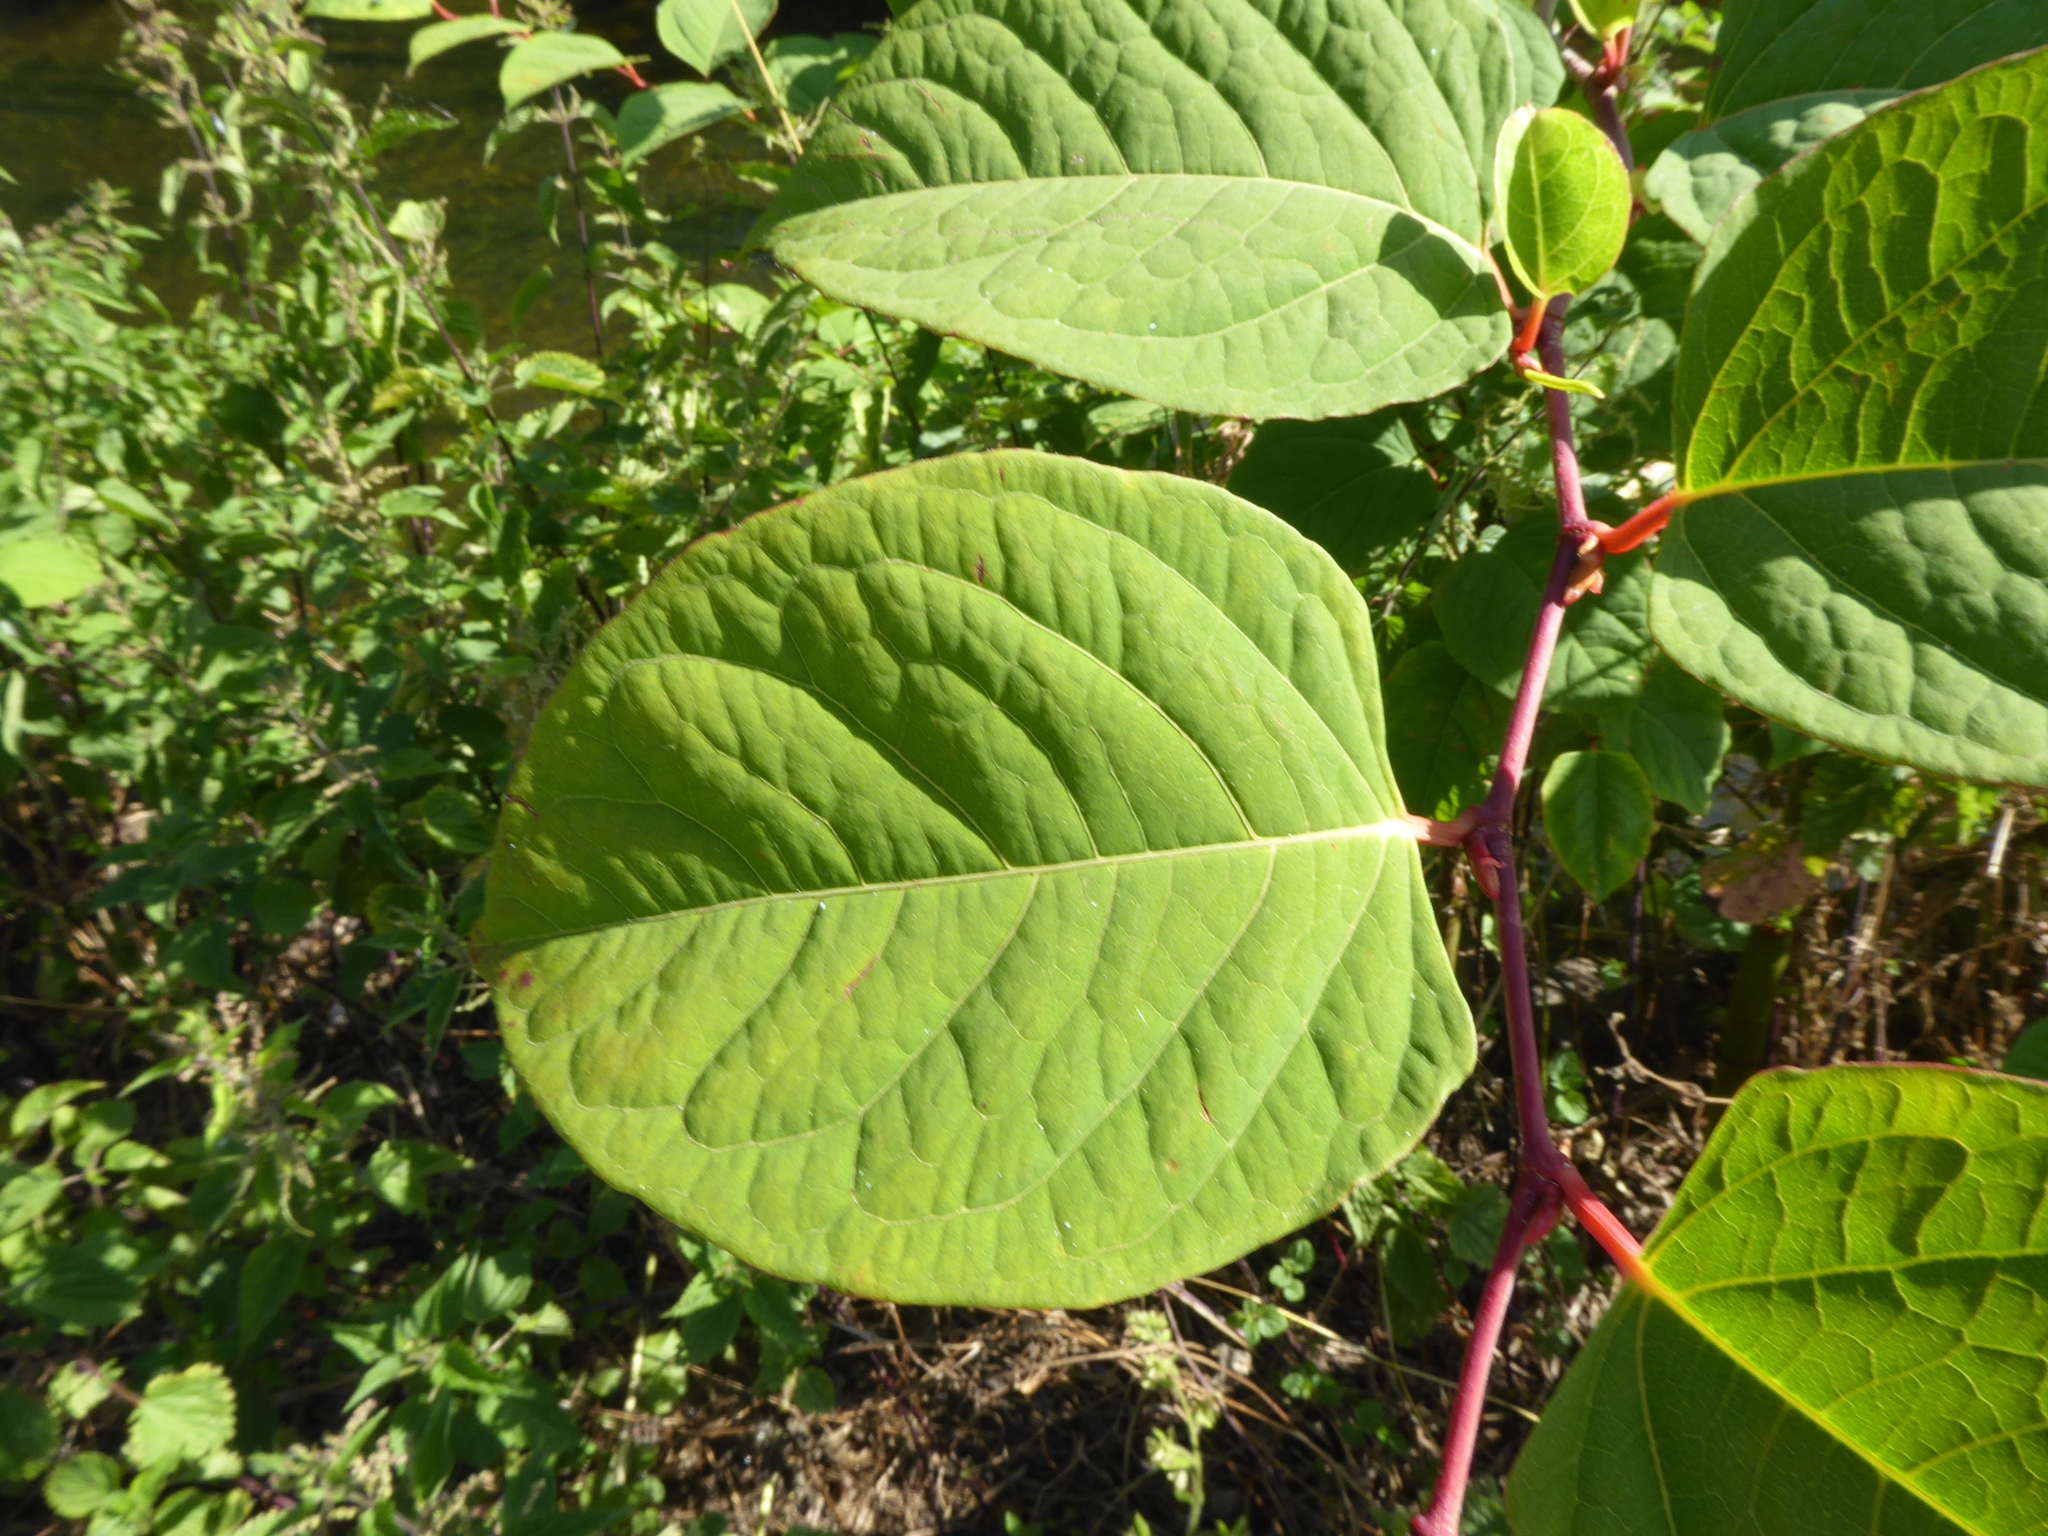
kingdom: Plantae
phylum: Tracheophyta
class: Magnoliopsida
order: Caryophyllales
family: Polygonaceae
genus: Reynoutria
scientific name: Reynoutria japonica
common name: Japanese knotweed
